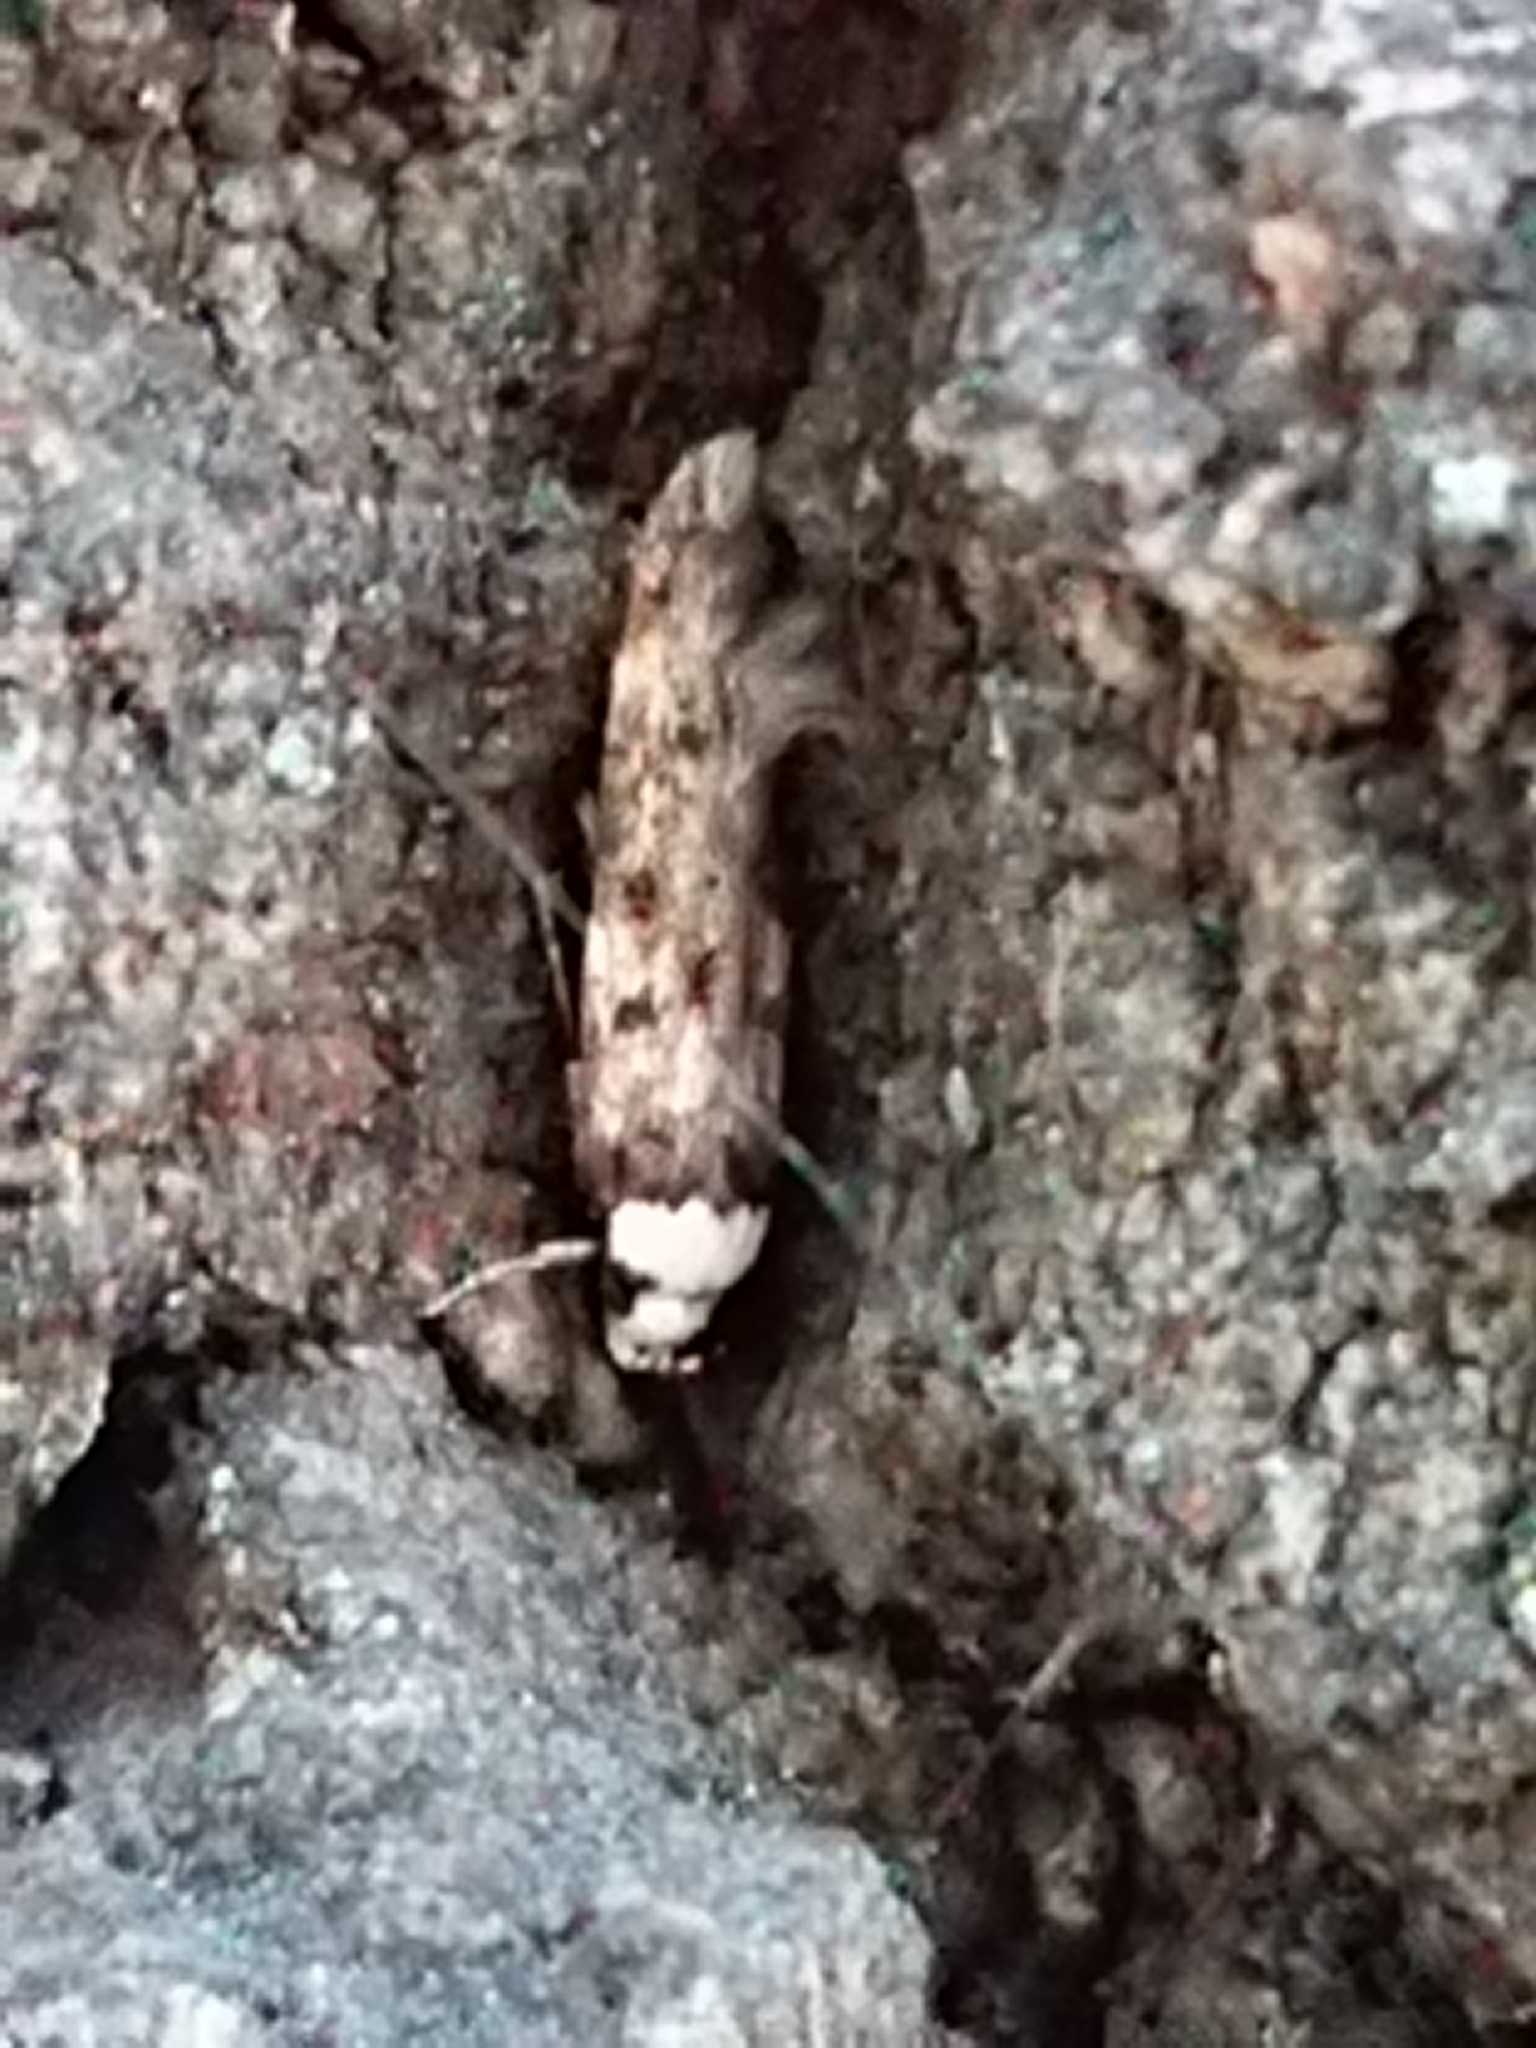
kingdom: Animalia
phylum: Arthropoda
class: Insecta
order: Lepidoptera
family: Oecophoridae
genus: Endrosis
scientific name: Endrosis sarcitrella
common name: White-shouldered house moth
